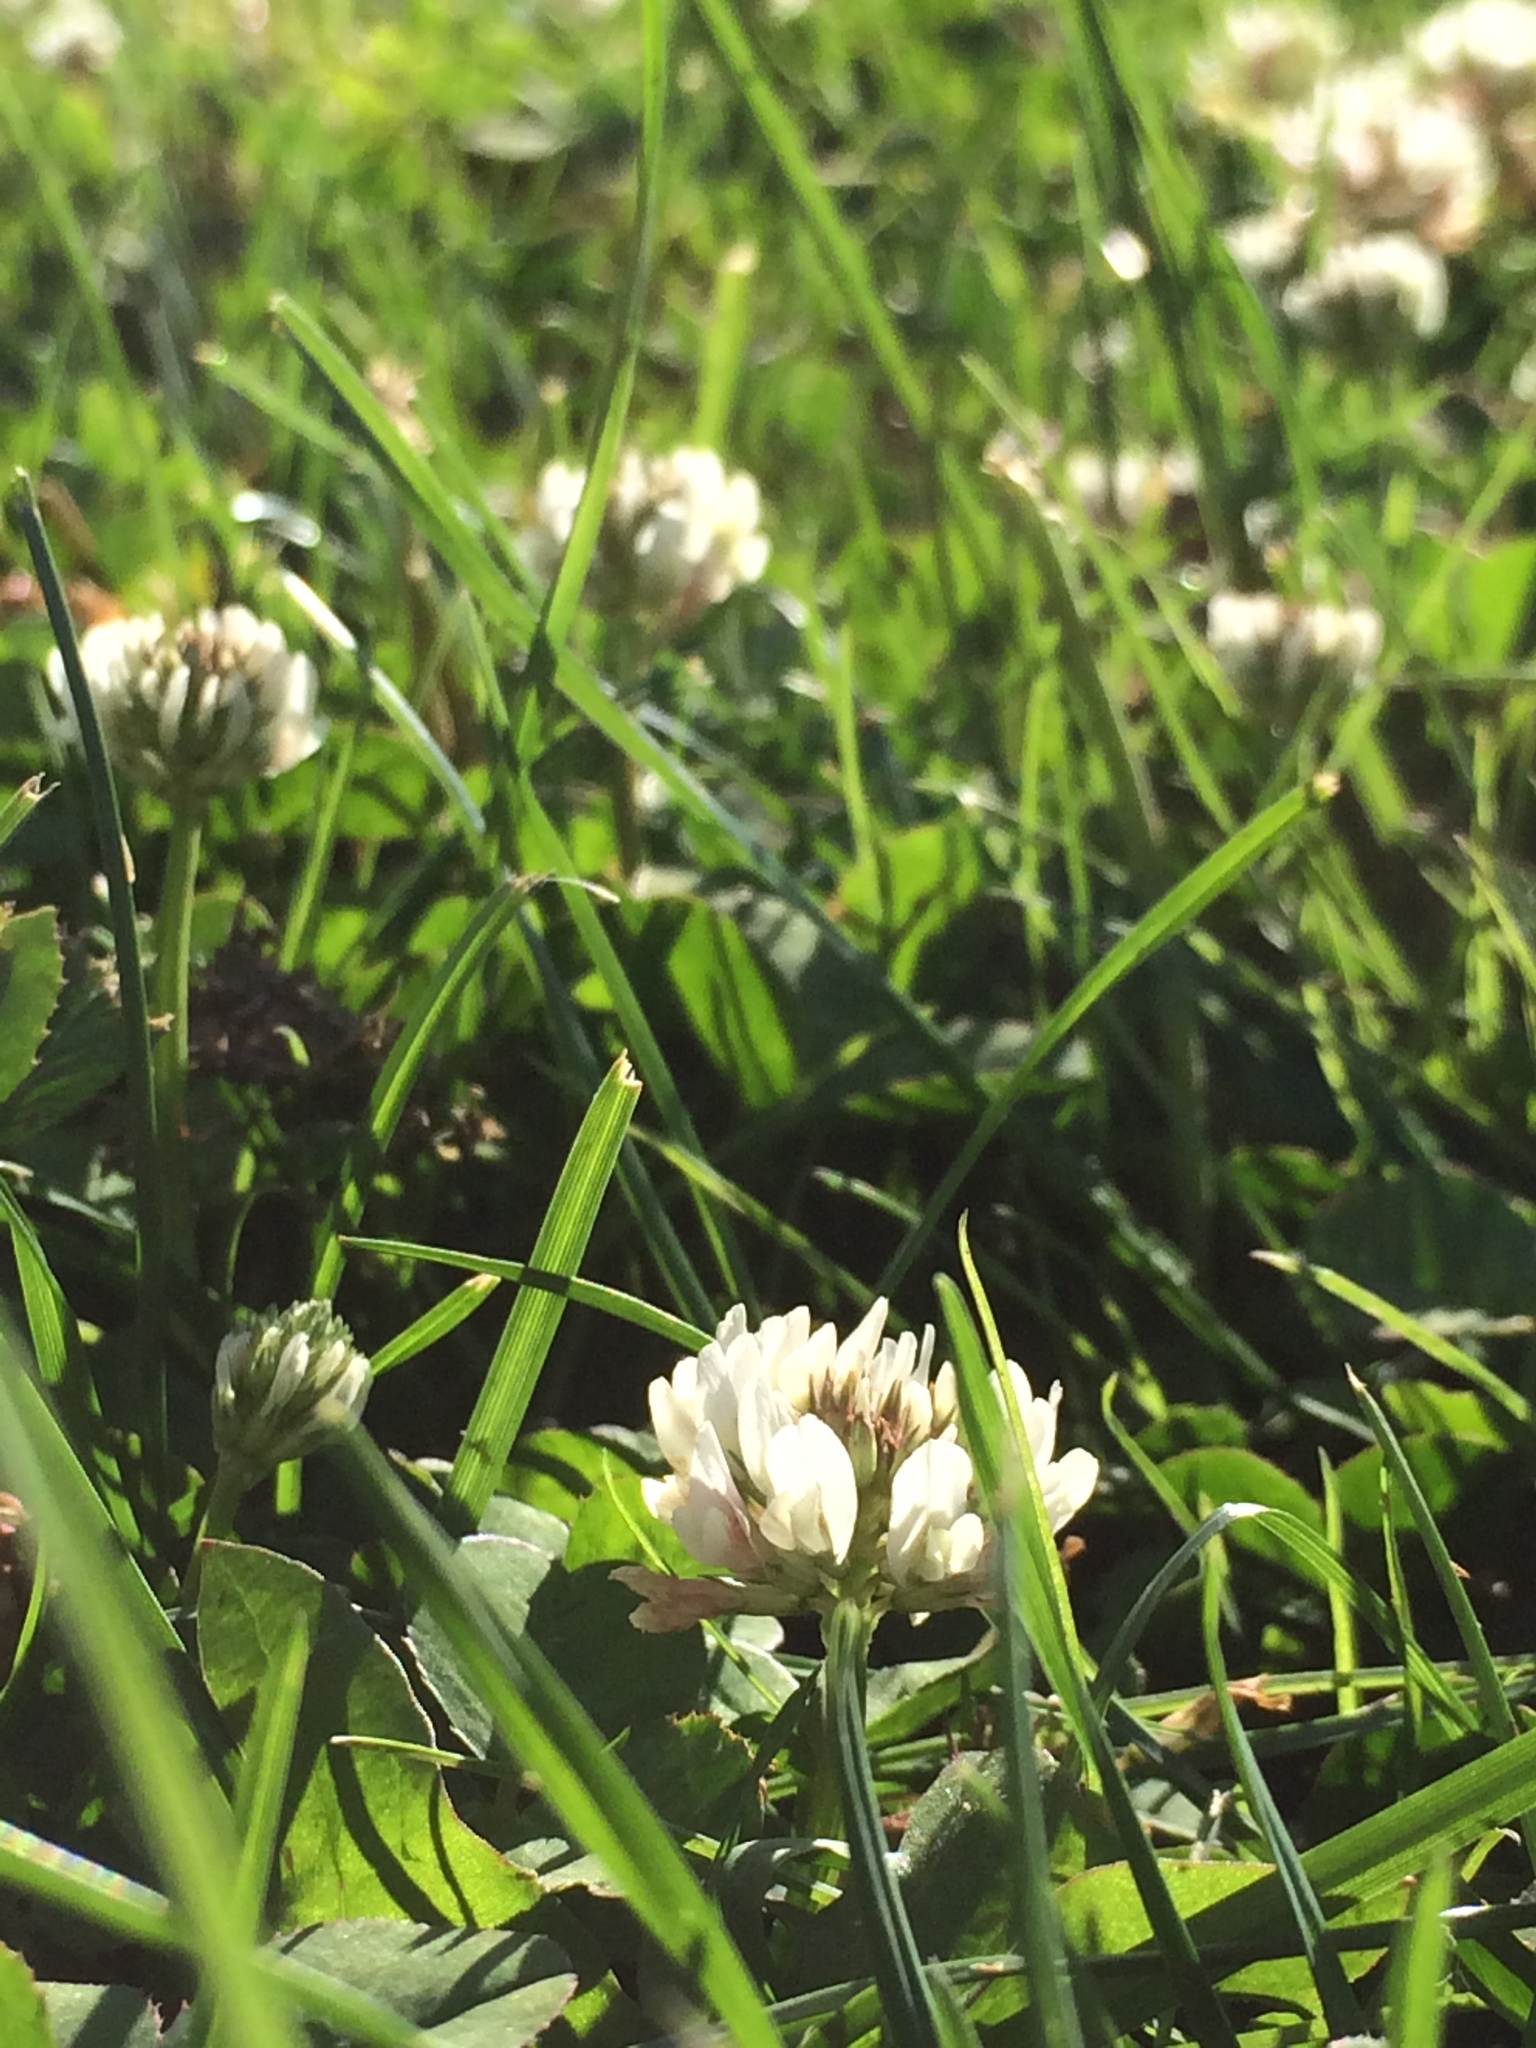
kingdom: Plantae
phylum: Tracheophyta
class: Magnoliopsida
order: Fabales
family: Fabaceae
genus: Trifolium
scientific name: Trifolium repens
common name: White clover
